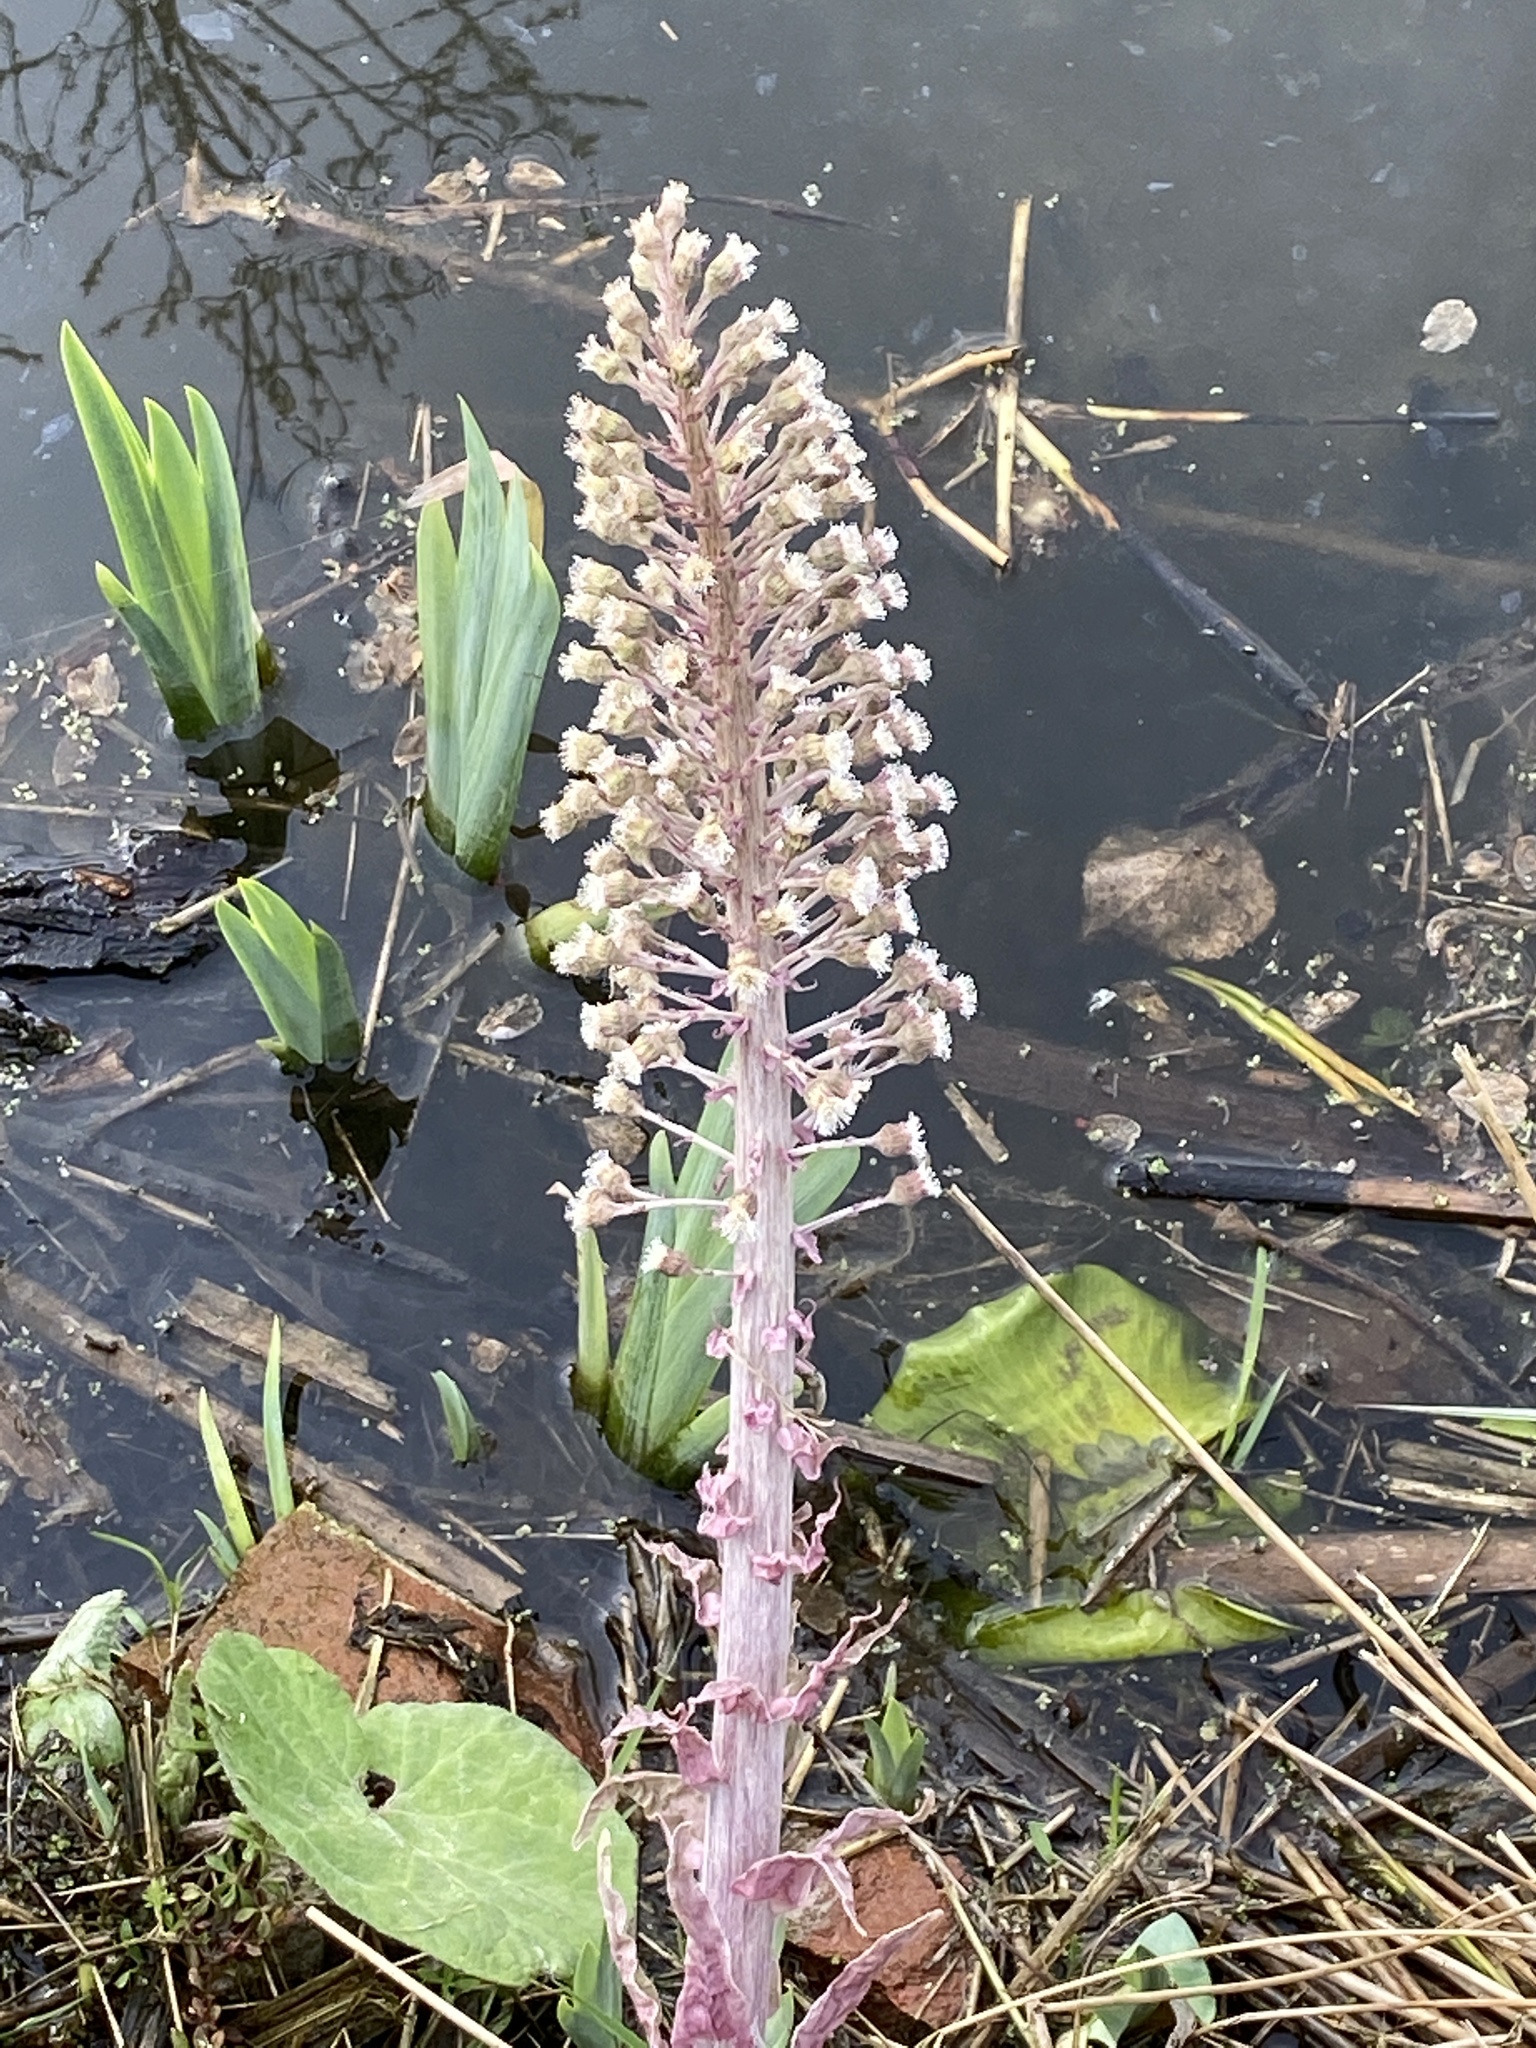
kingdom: Plantae
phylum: Tracheophyta
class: Magnoliopsida
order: Asterales
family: Asteraceae
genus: Petasites
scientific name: Petasites hybridus
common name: Butterbur
